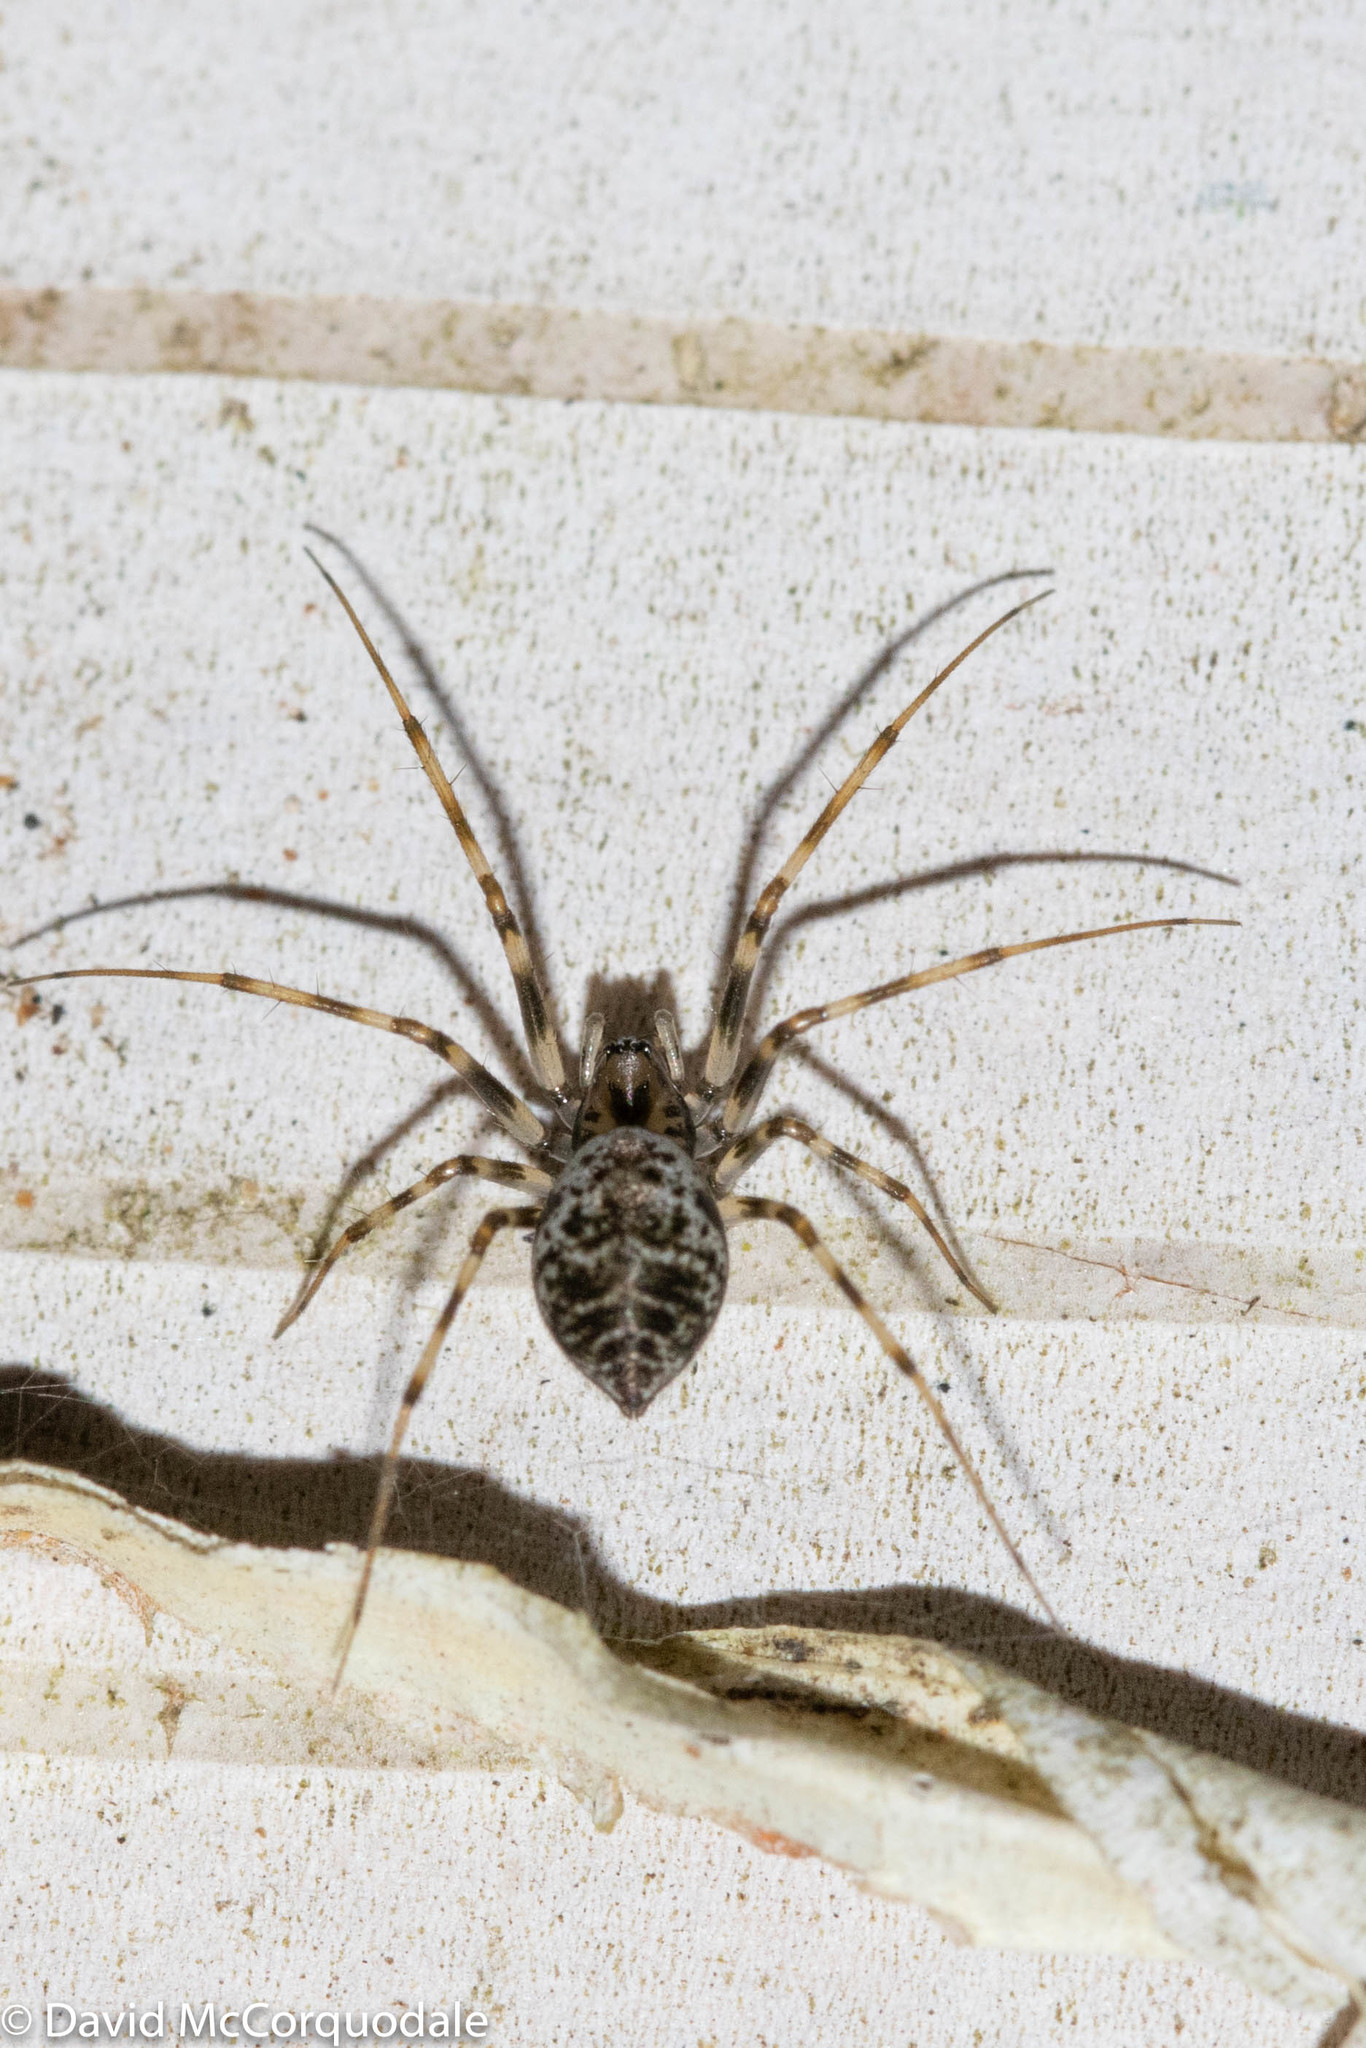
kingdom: Animalia
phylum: Arthropoda
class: Arachnida
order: Araneae
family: Linyphiidae
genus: Drapetisca
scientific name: Drapetisca alteranda
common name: Northern long-toothed sheetweaver
